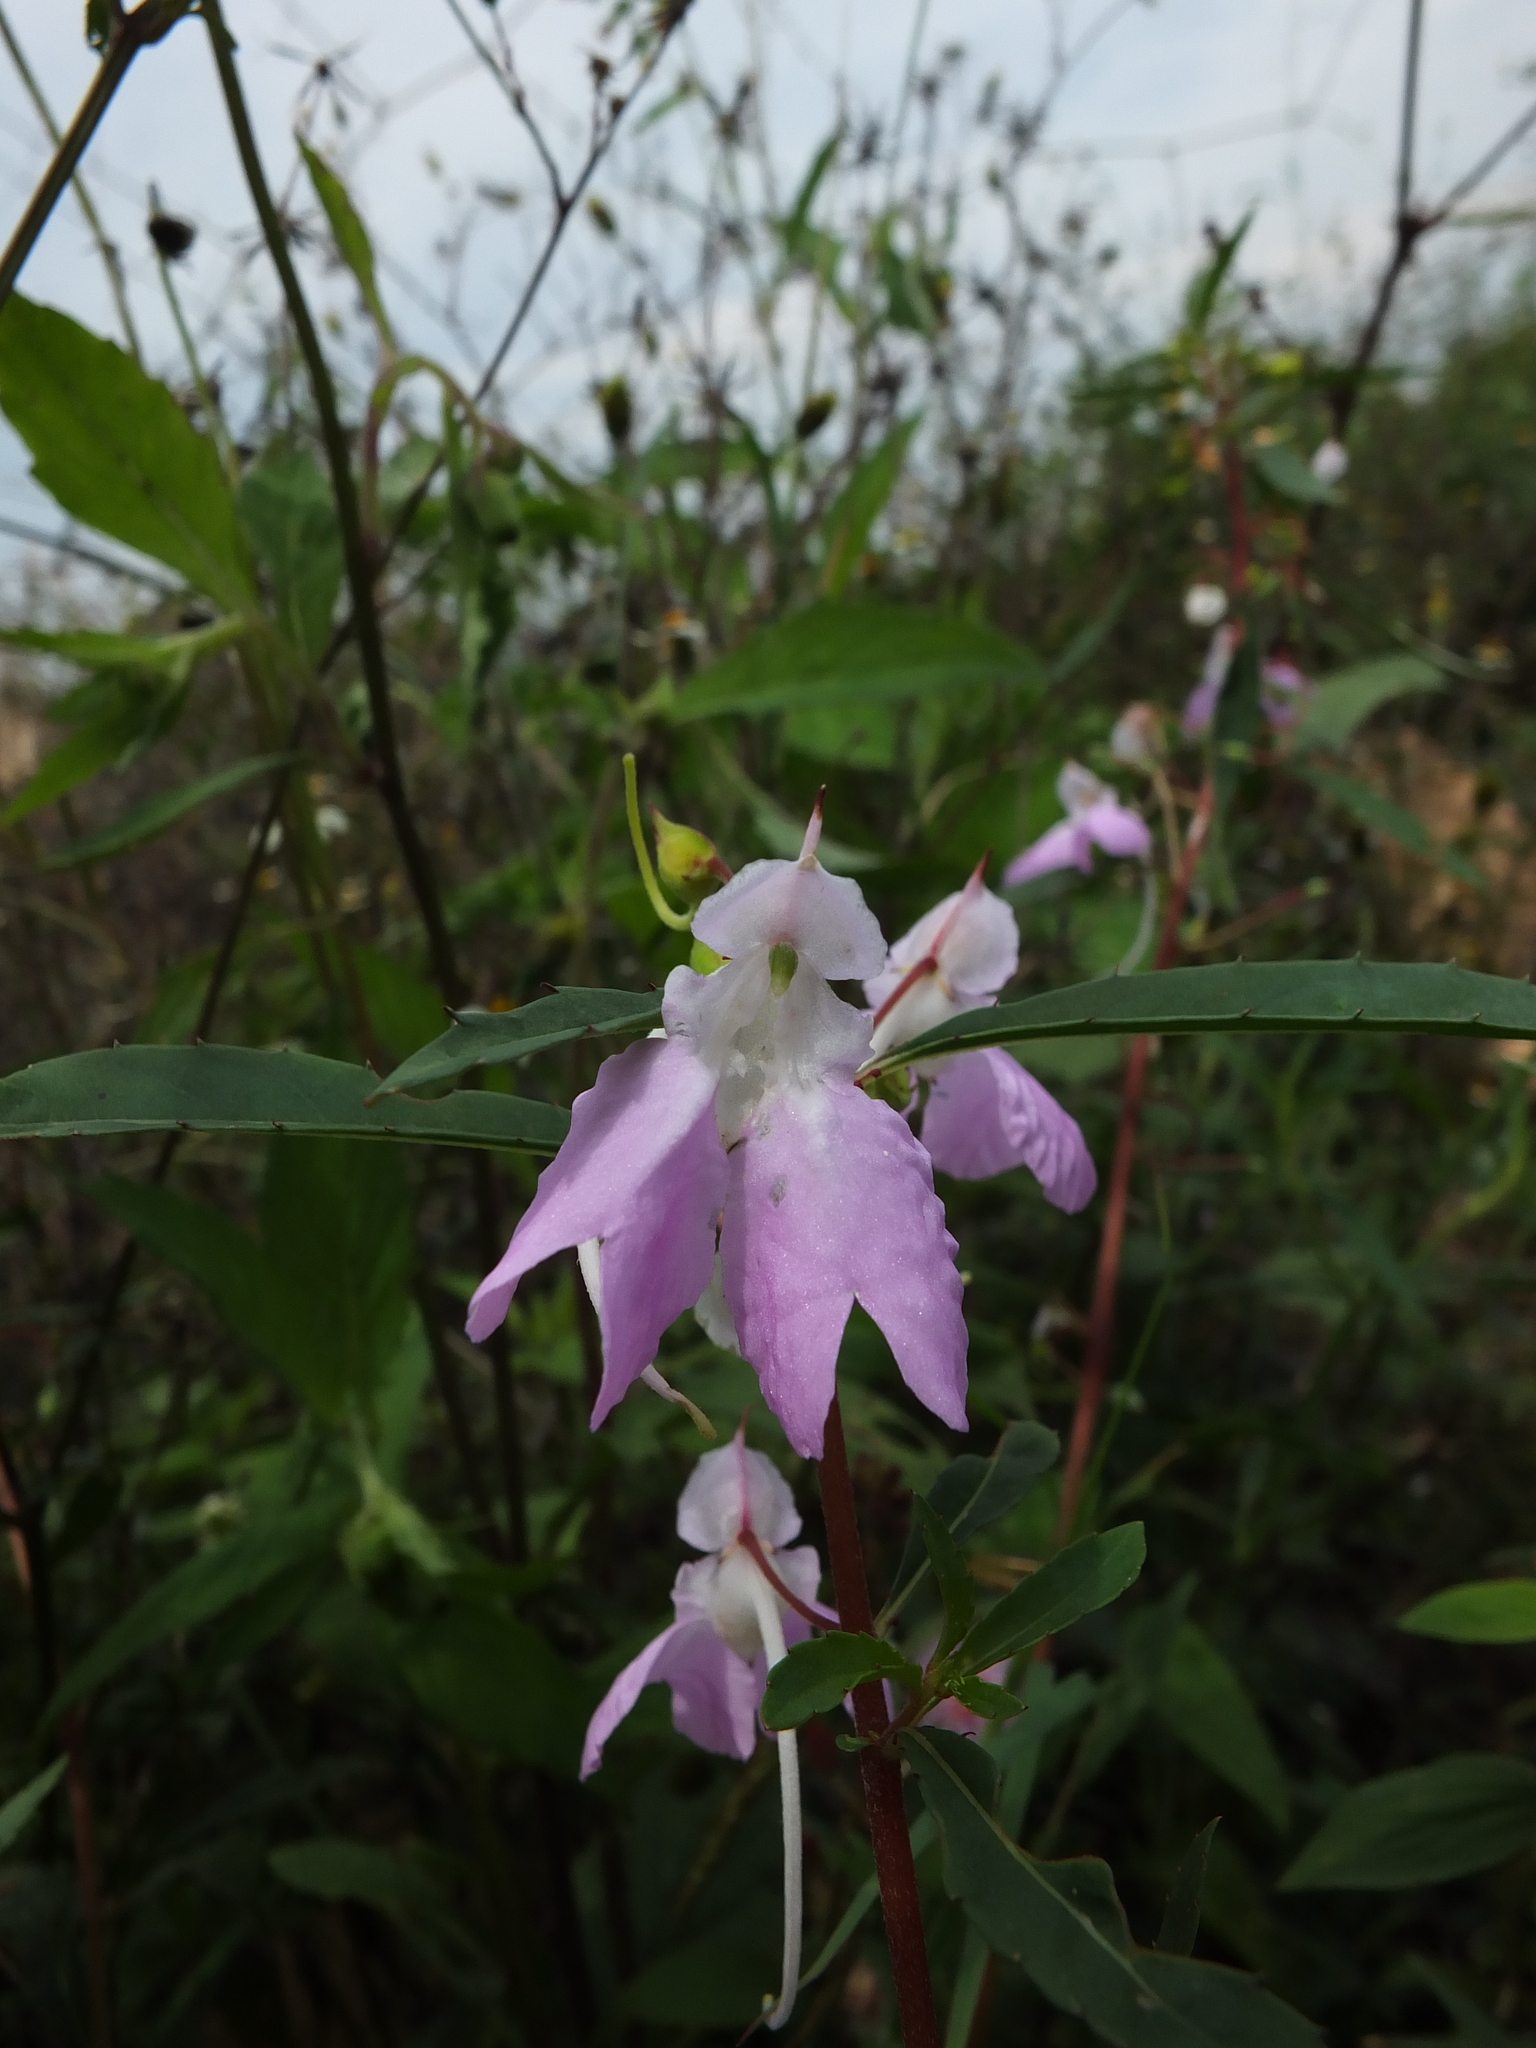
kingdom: Plantae
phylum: Tracheophyta
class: Magnoliopsida
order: Ericales
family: Balsaminaceae
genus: Impatiens
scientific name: Impatiens balsamina
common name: Balsam
